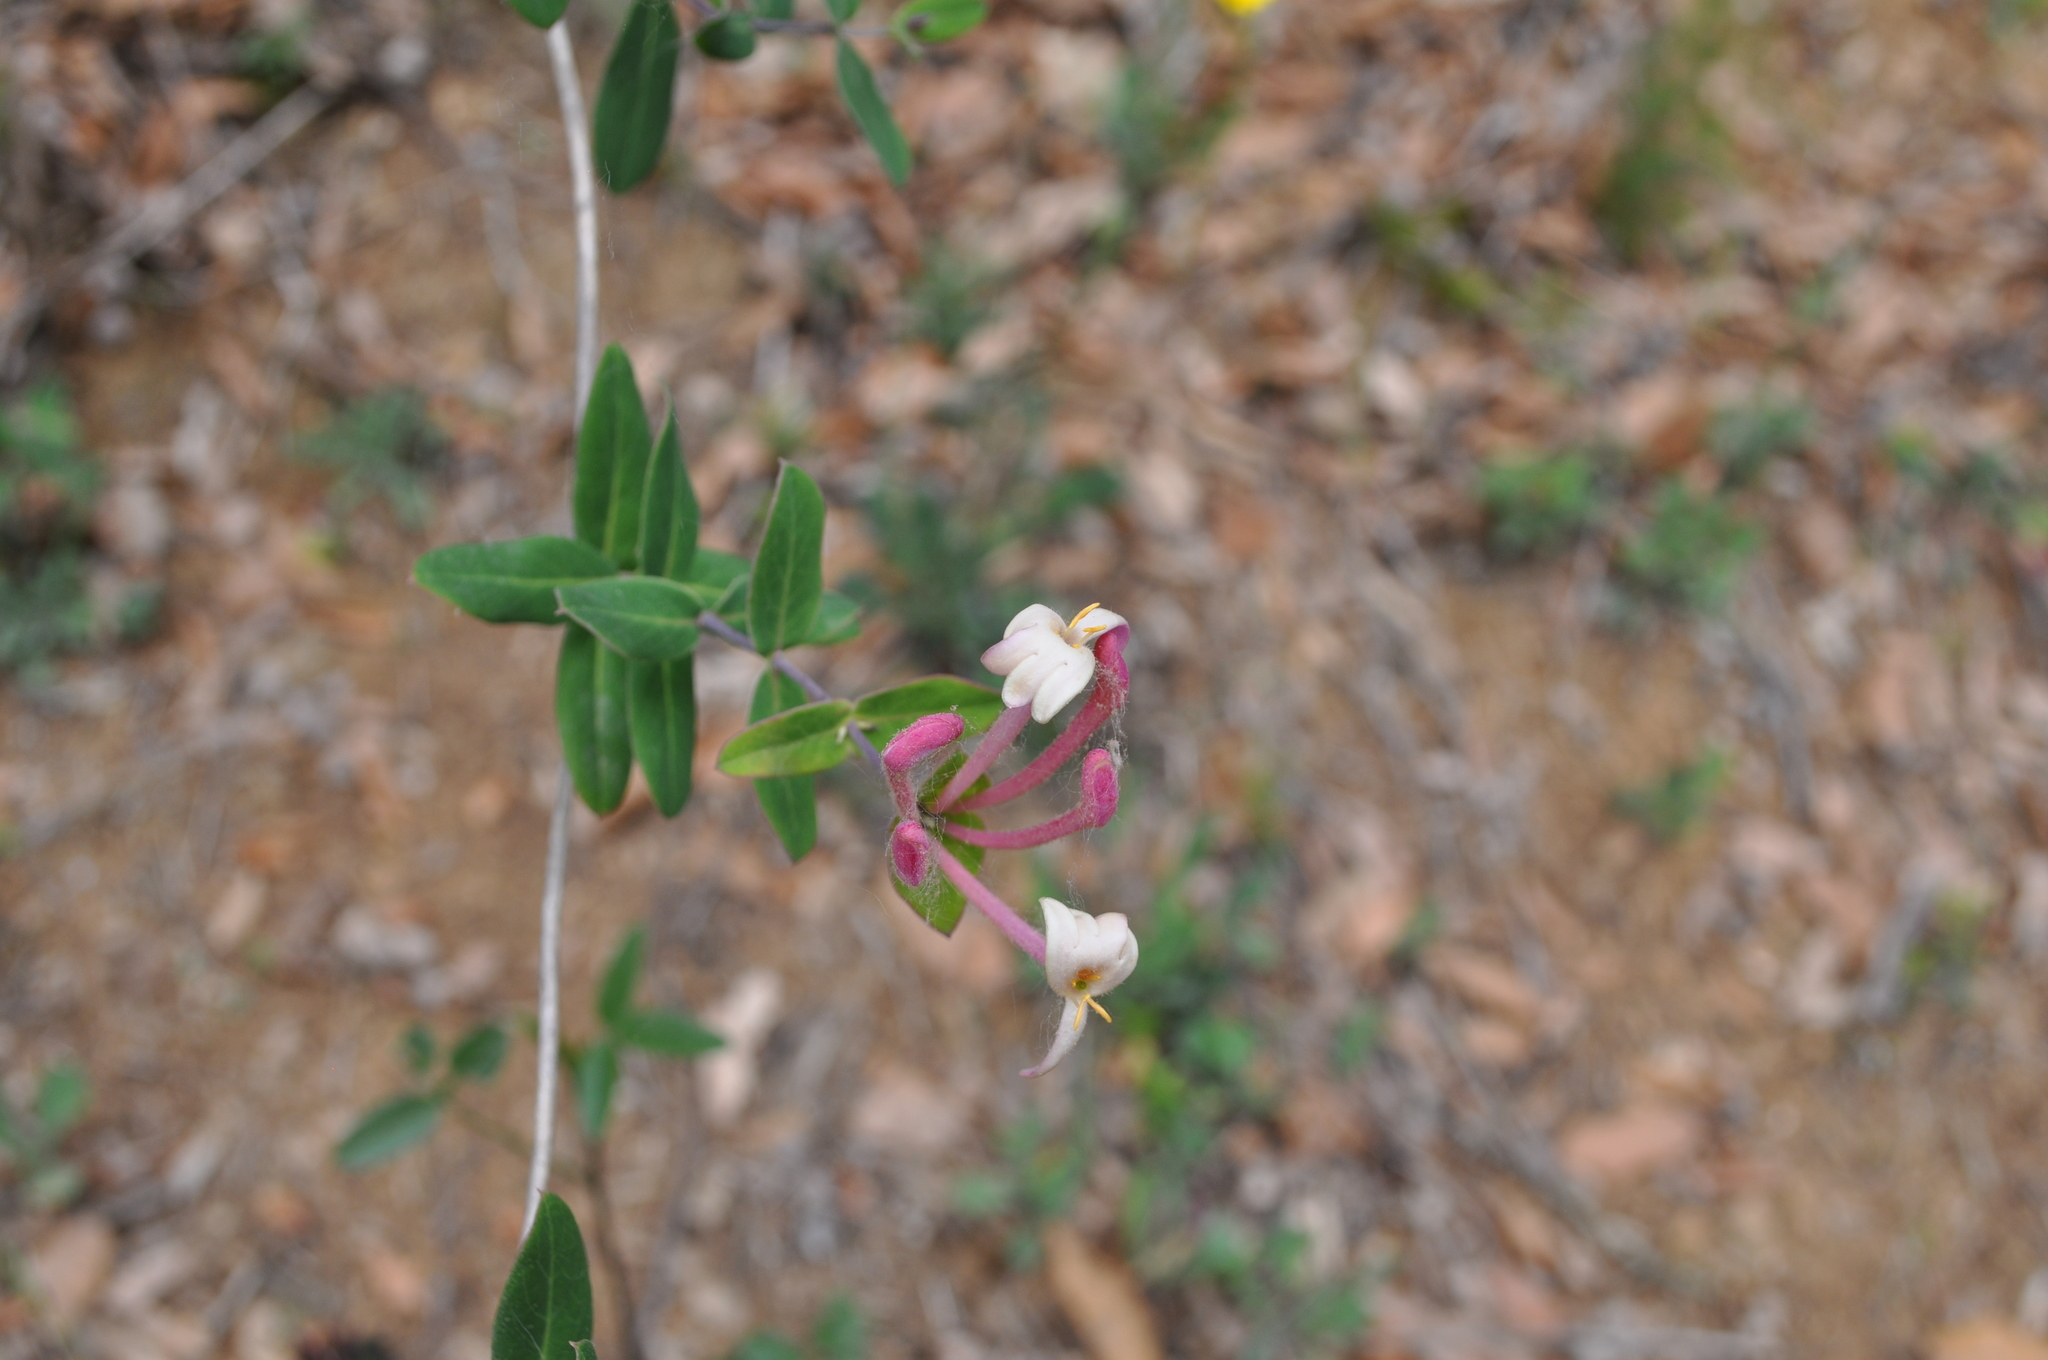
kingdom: Plantae
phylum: Tracheophyta
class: Magnoliopsida
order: Dipsacales
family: Caprifoliaceae
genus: Lonicera
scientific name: Lonicera implexa
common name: Minorca honeysuckle
